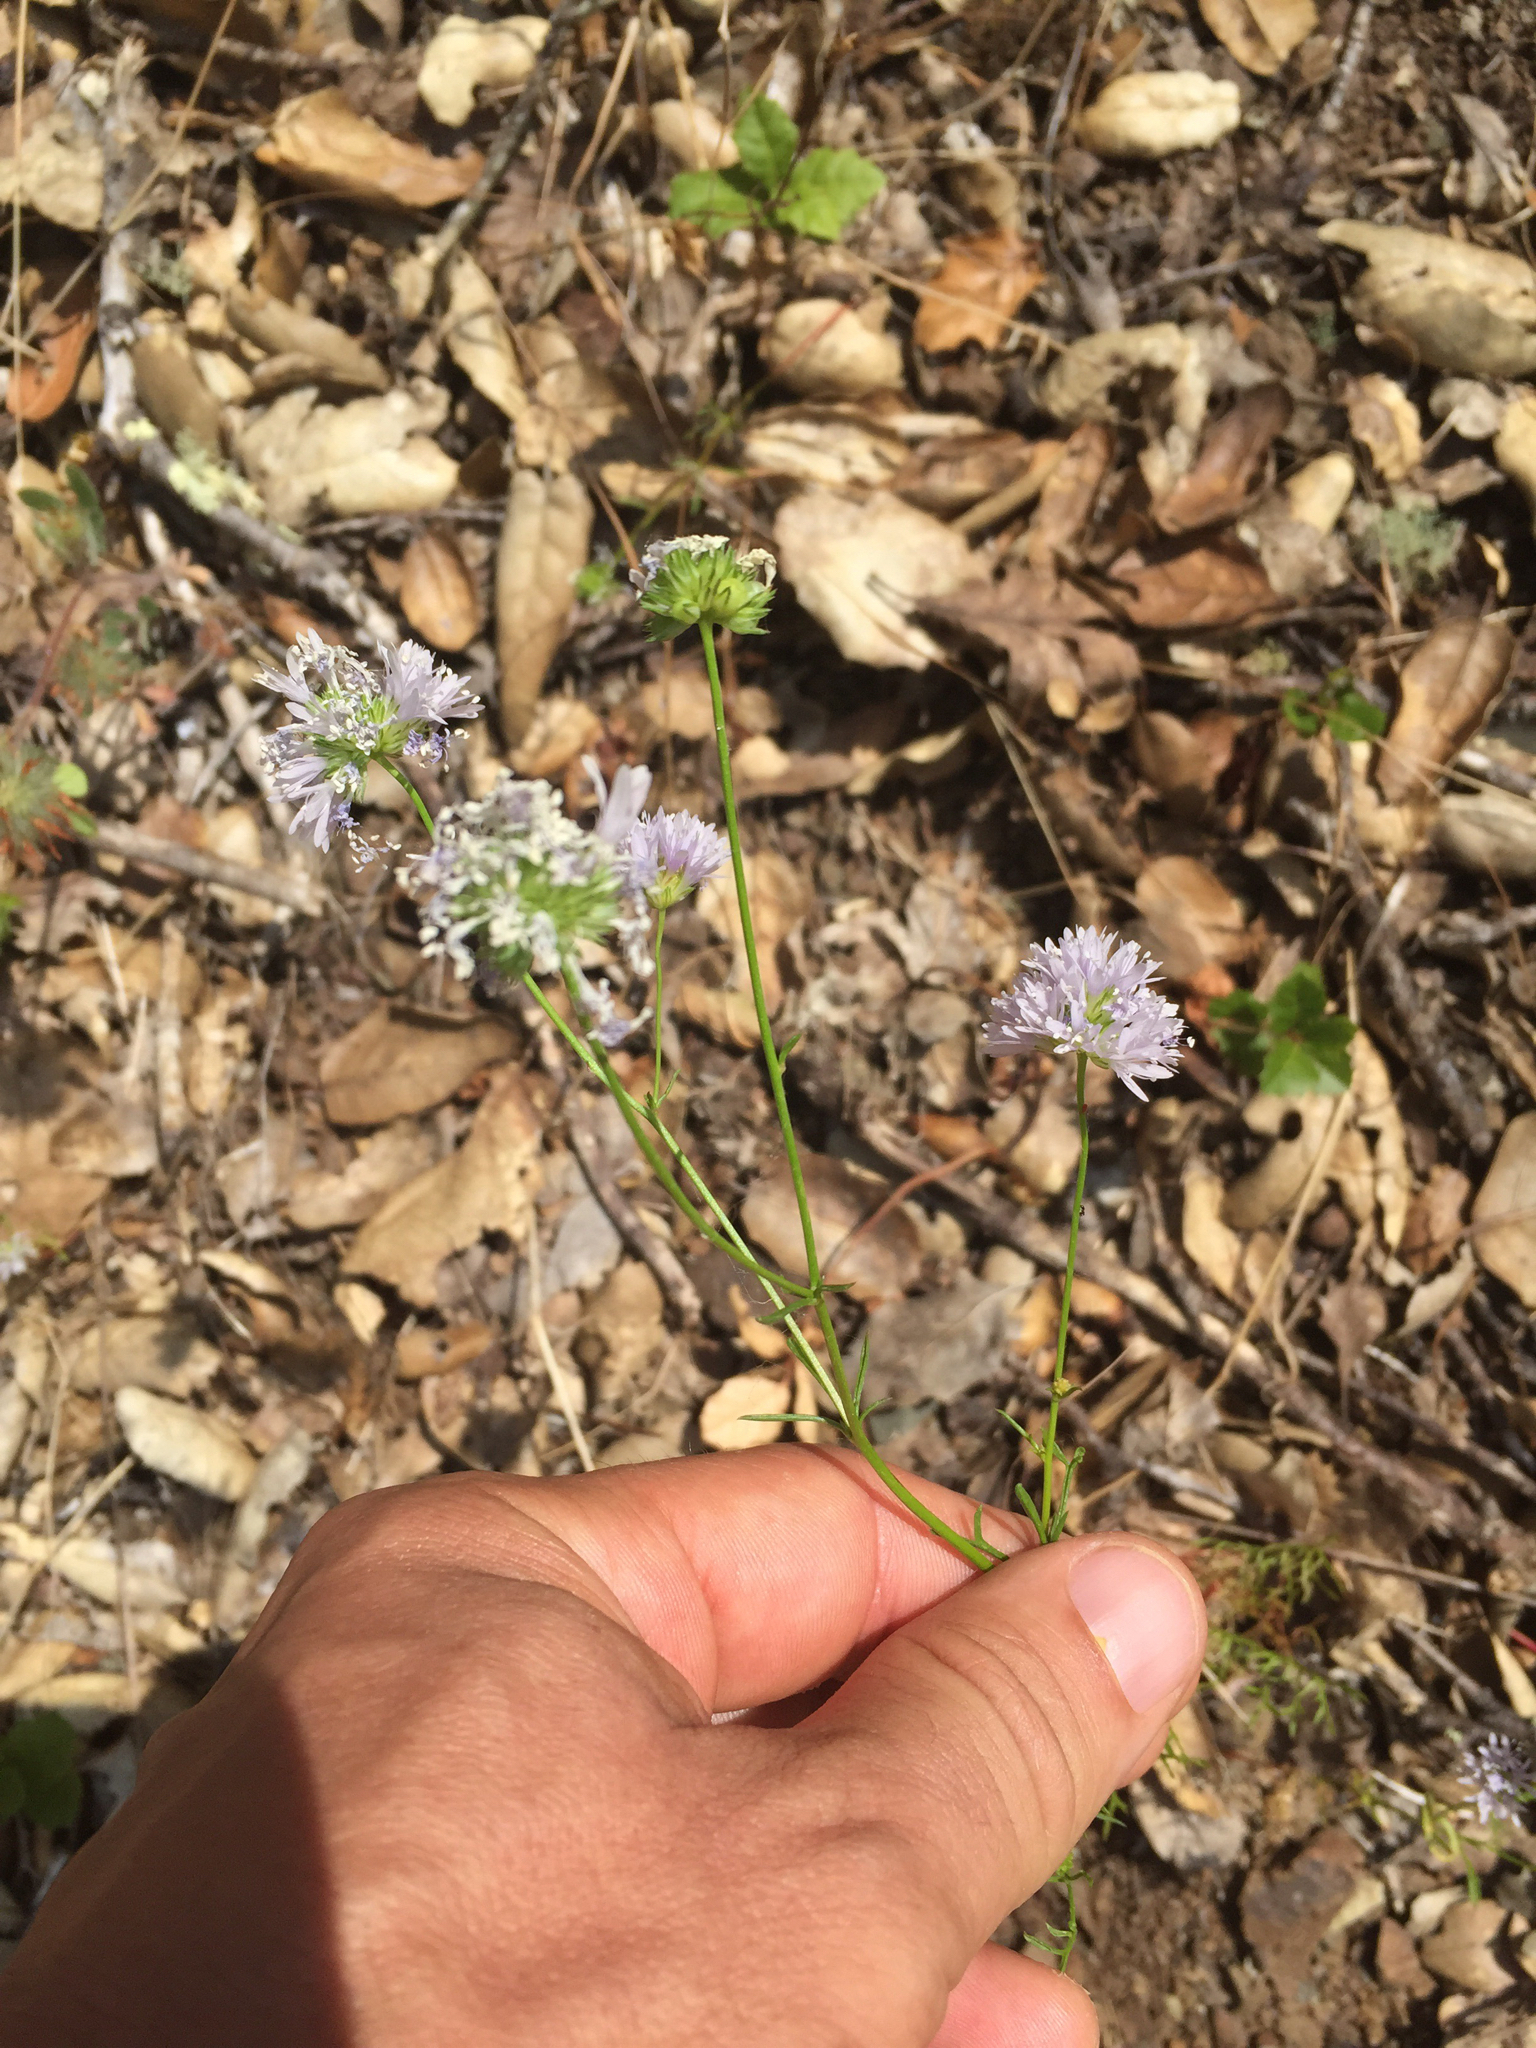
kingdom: Plantae
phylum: Tracheophyta
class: Magnoliopsida
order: Ericales
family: Polemoniaceae
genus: Gilia
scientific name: Gilia capitata
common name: Bluehead gilia
